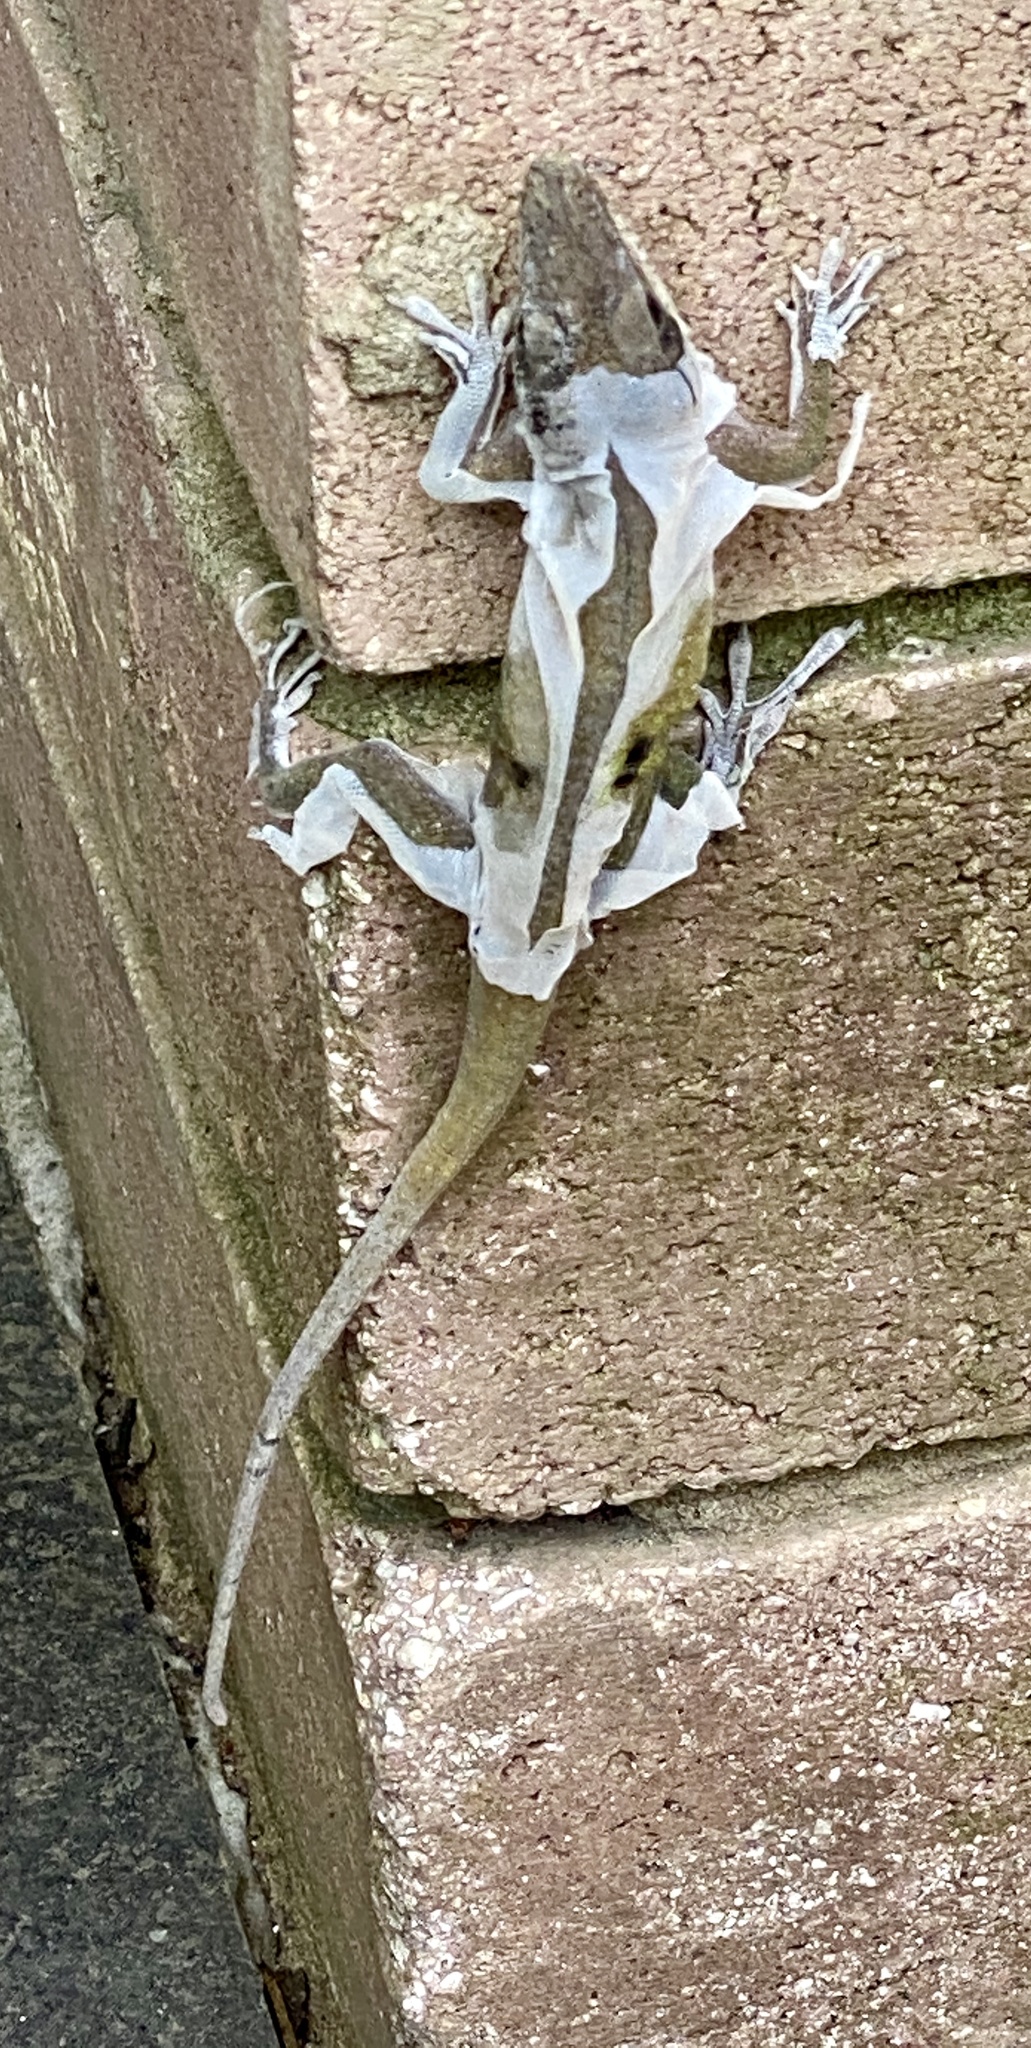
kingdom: Animalia
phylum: Chordata
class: Squamata
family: Dactyloidae
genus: Anolis
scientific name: Anolis carolinensis
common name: Green anole
